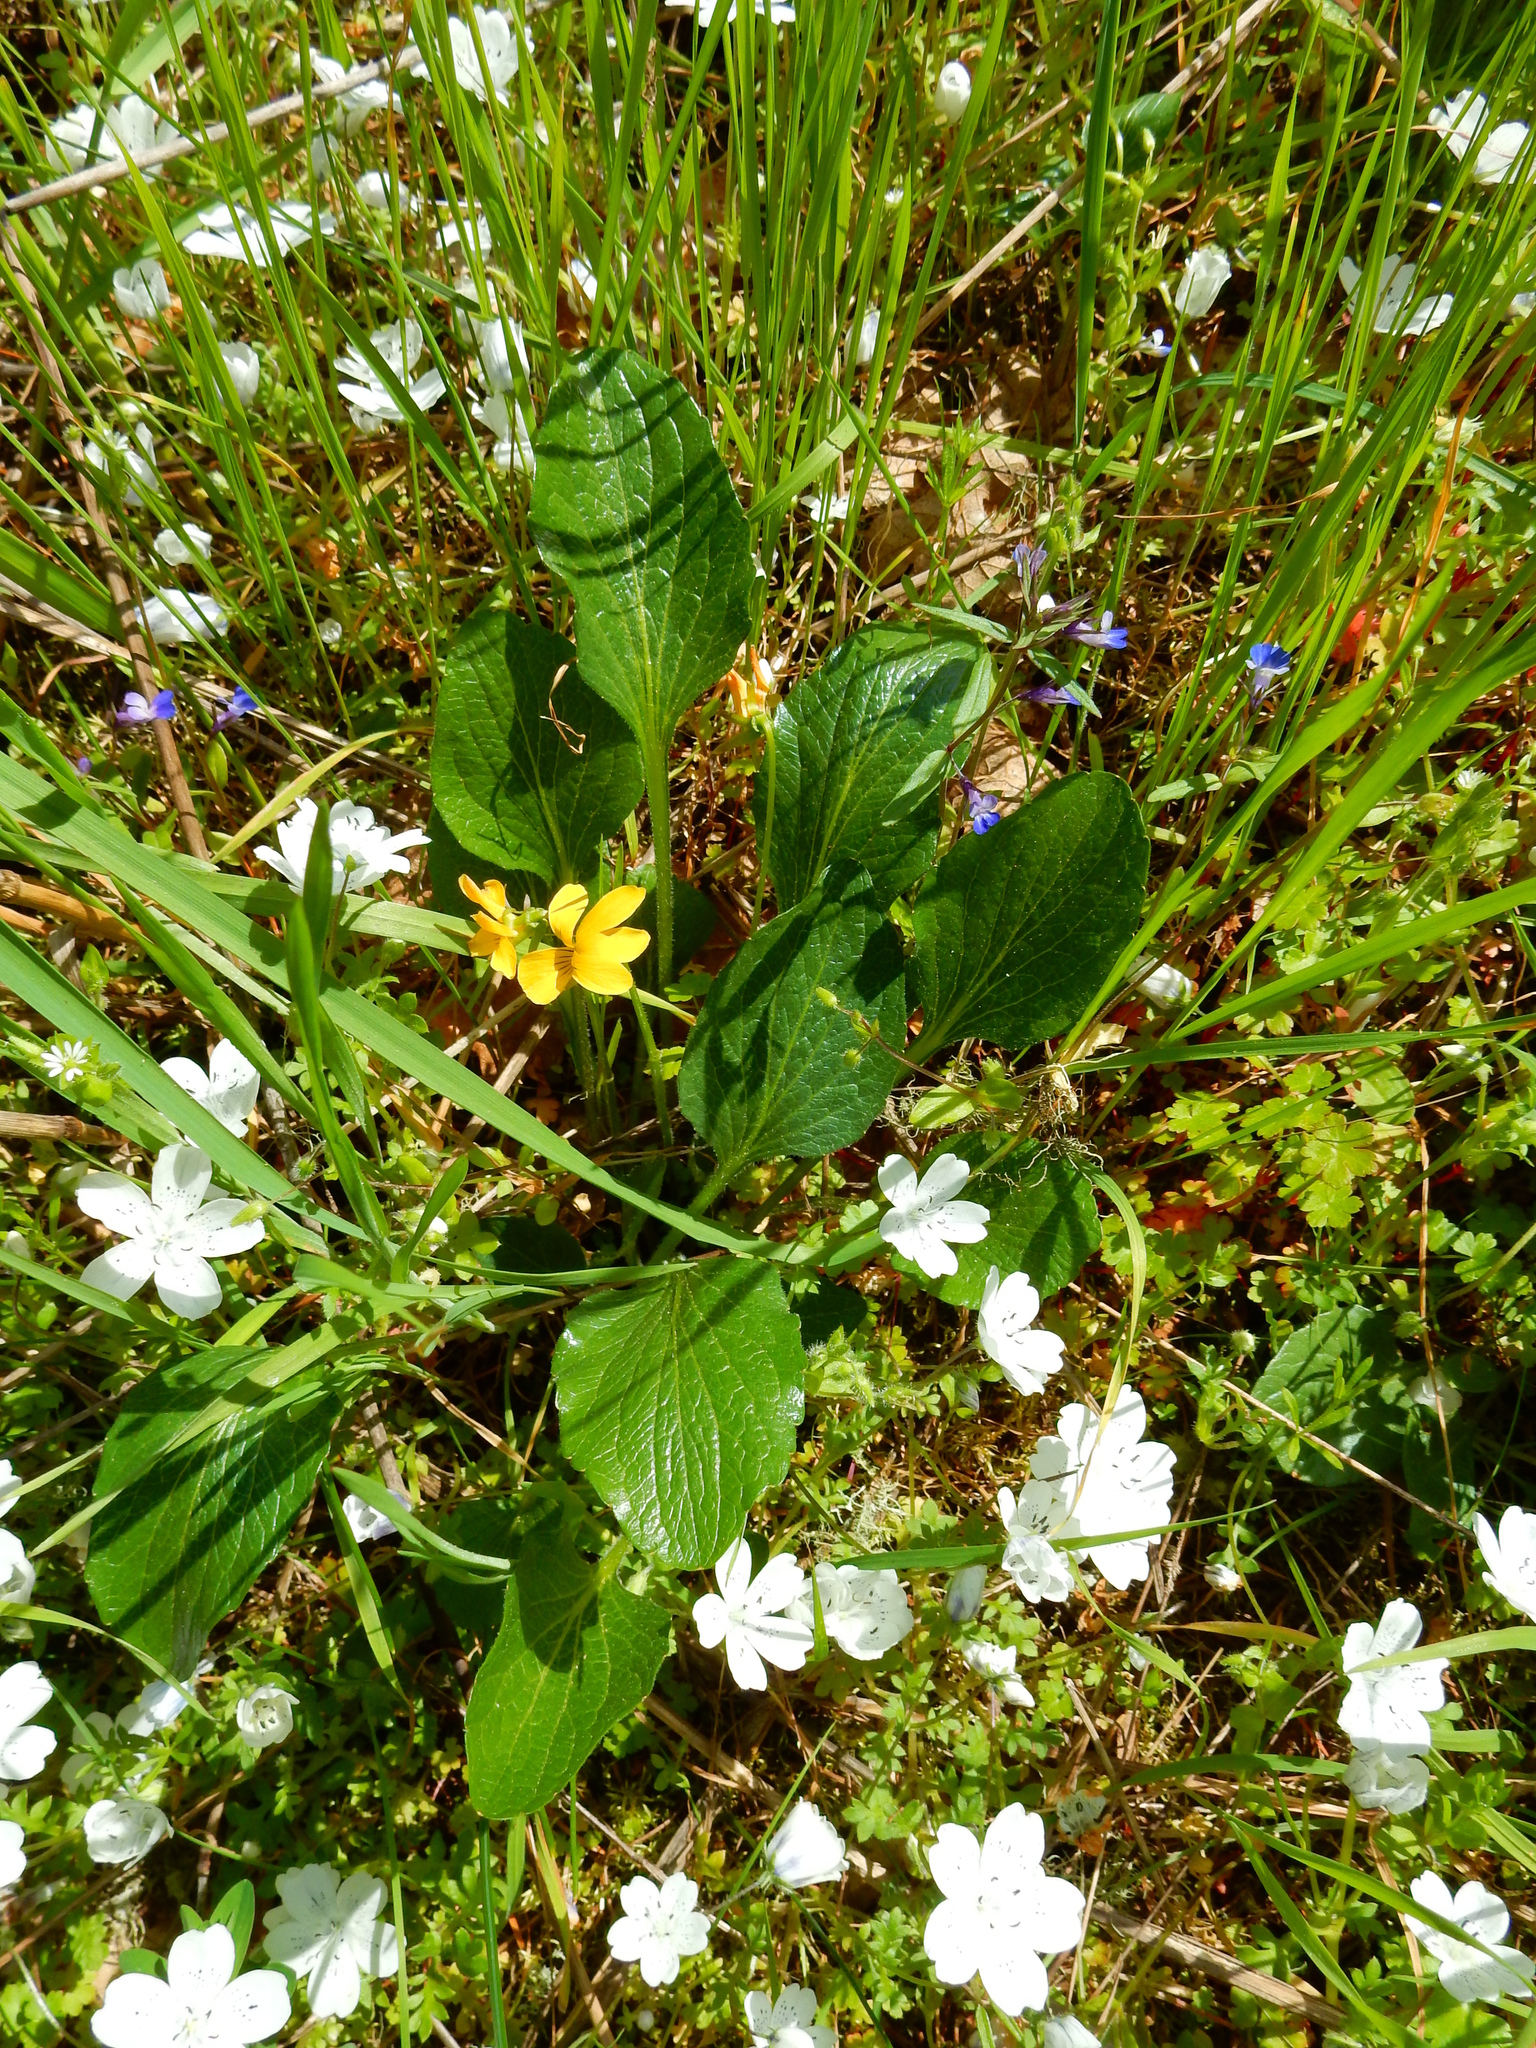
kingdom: Plantae
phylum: Tracheophyta
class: Magnoliopsida
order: Malpighiales
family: Violaceae
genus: Viola
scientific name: Viola praemorsa
